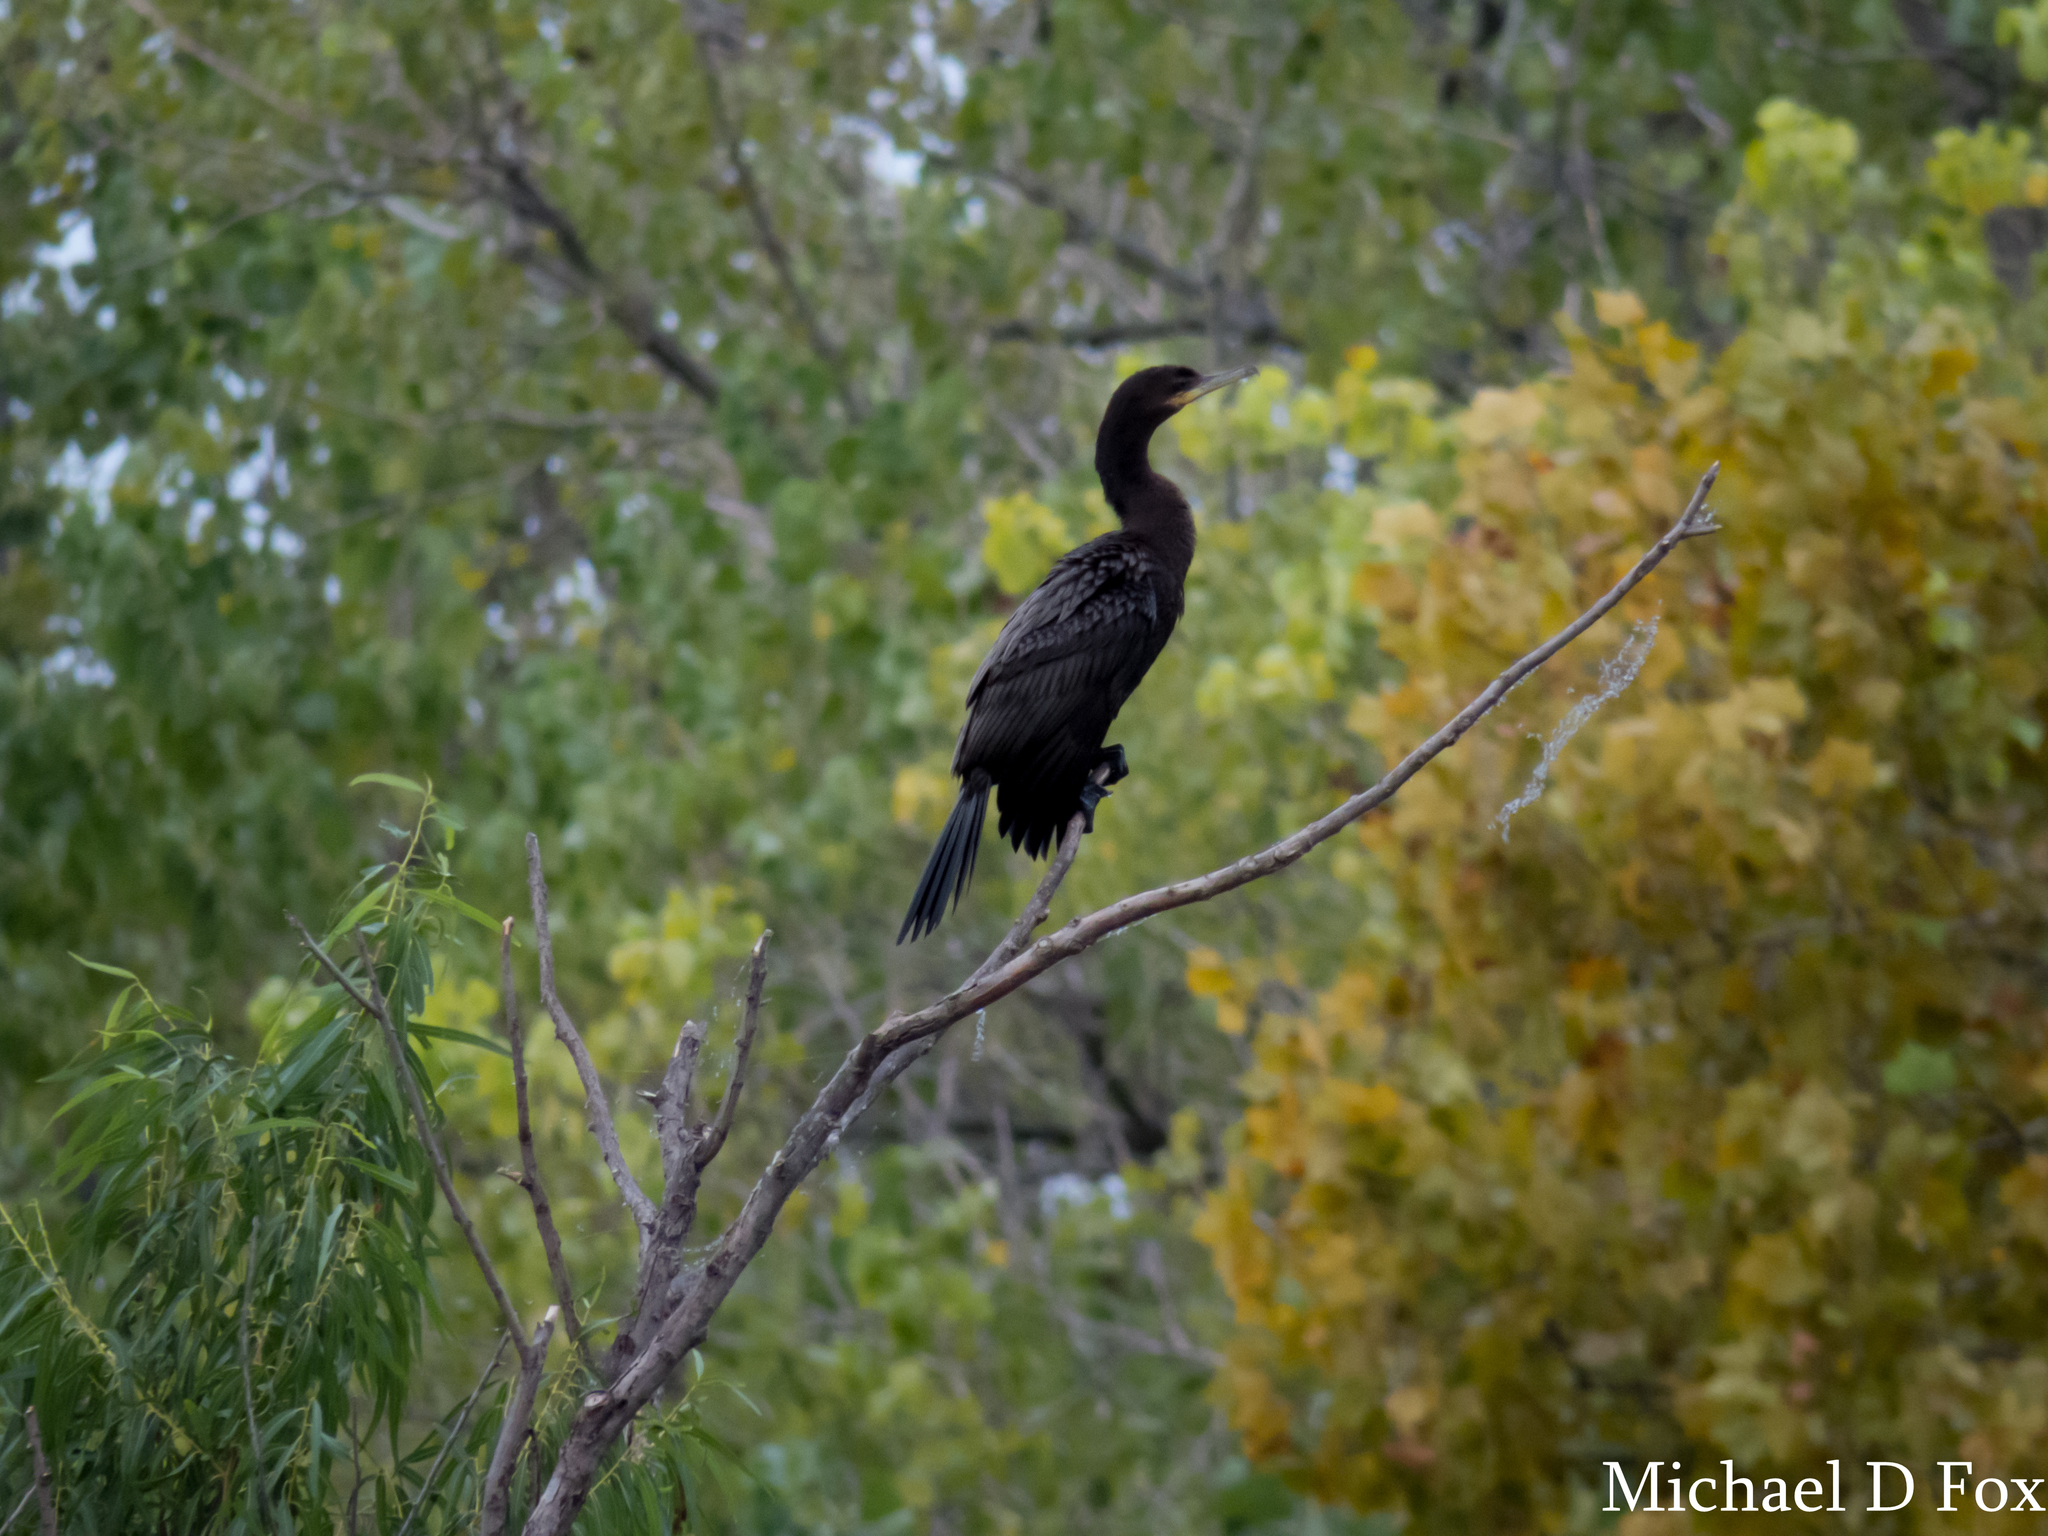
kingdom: Animalia
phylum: Chordata
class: Aves
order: Suliformes
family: Phalacrocoracidae
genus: Phalacrocorax
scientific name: Phalacrocorax brasilianus
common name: Neotropic cormorant
